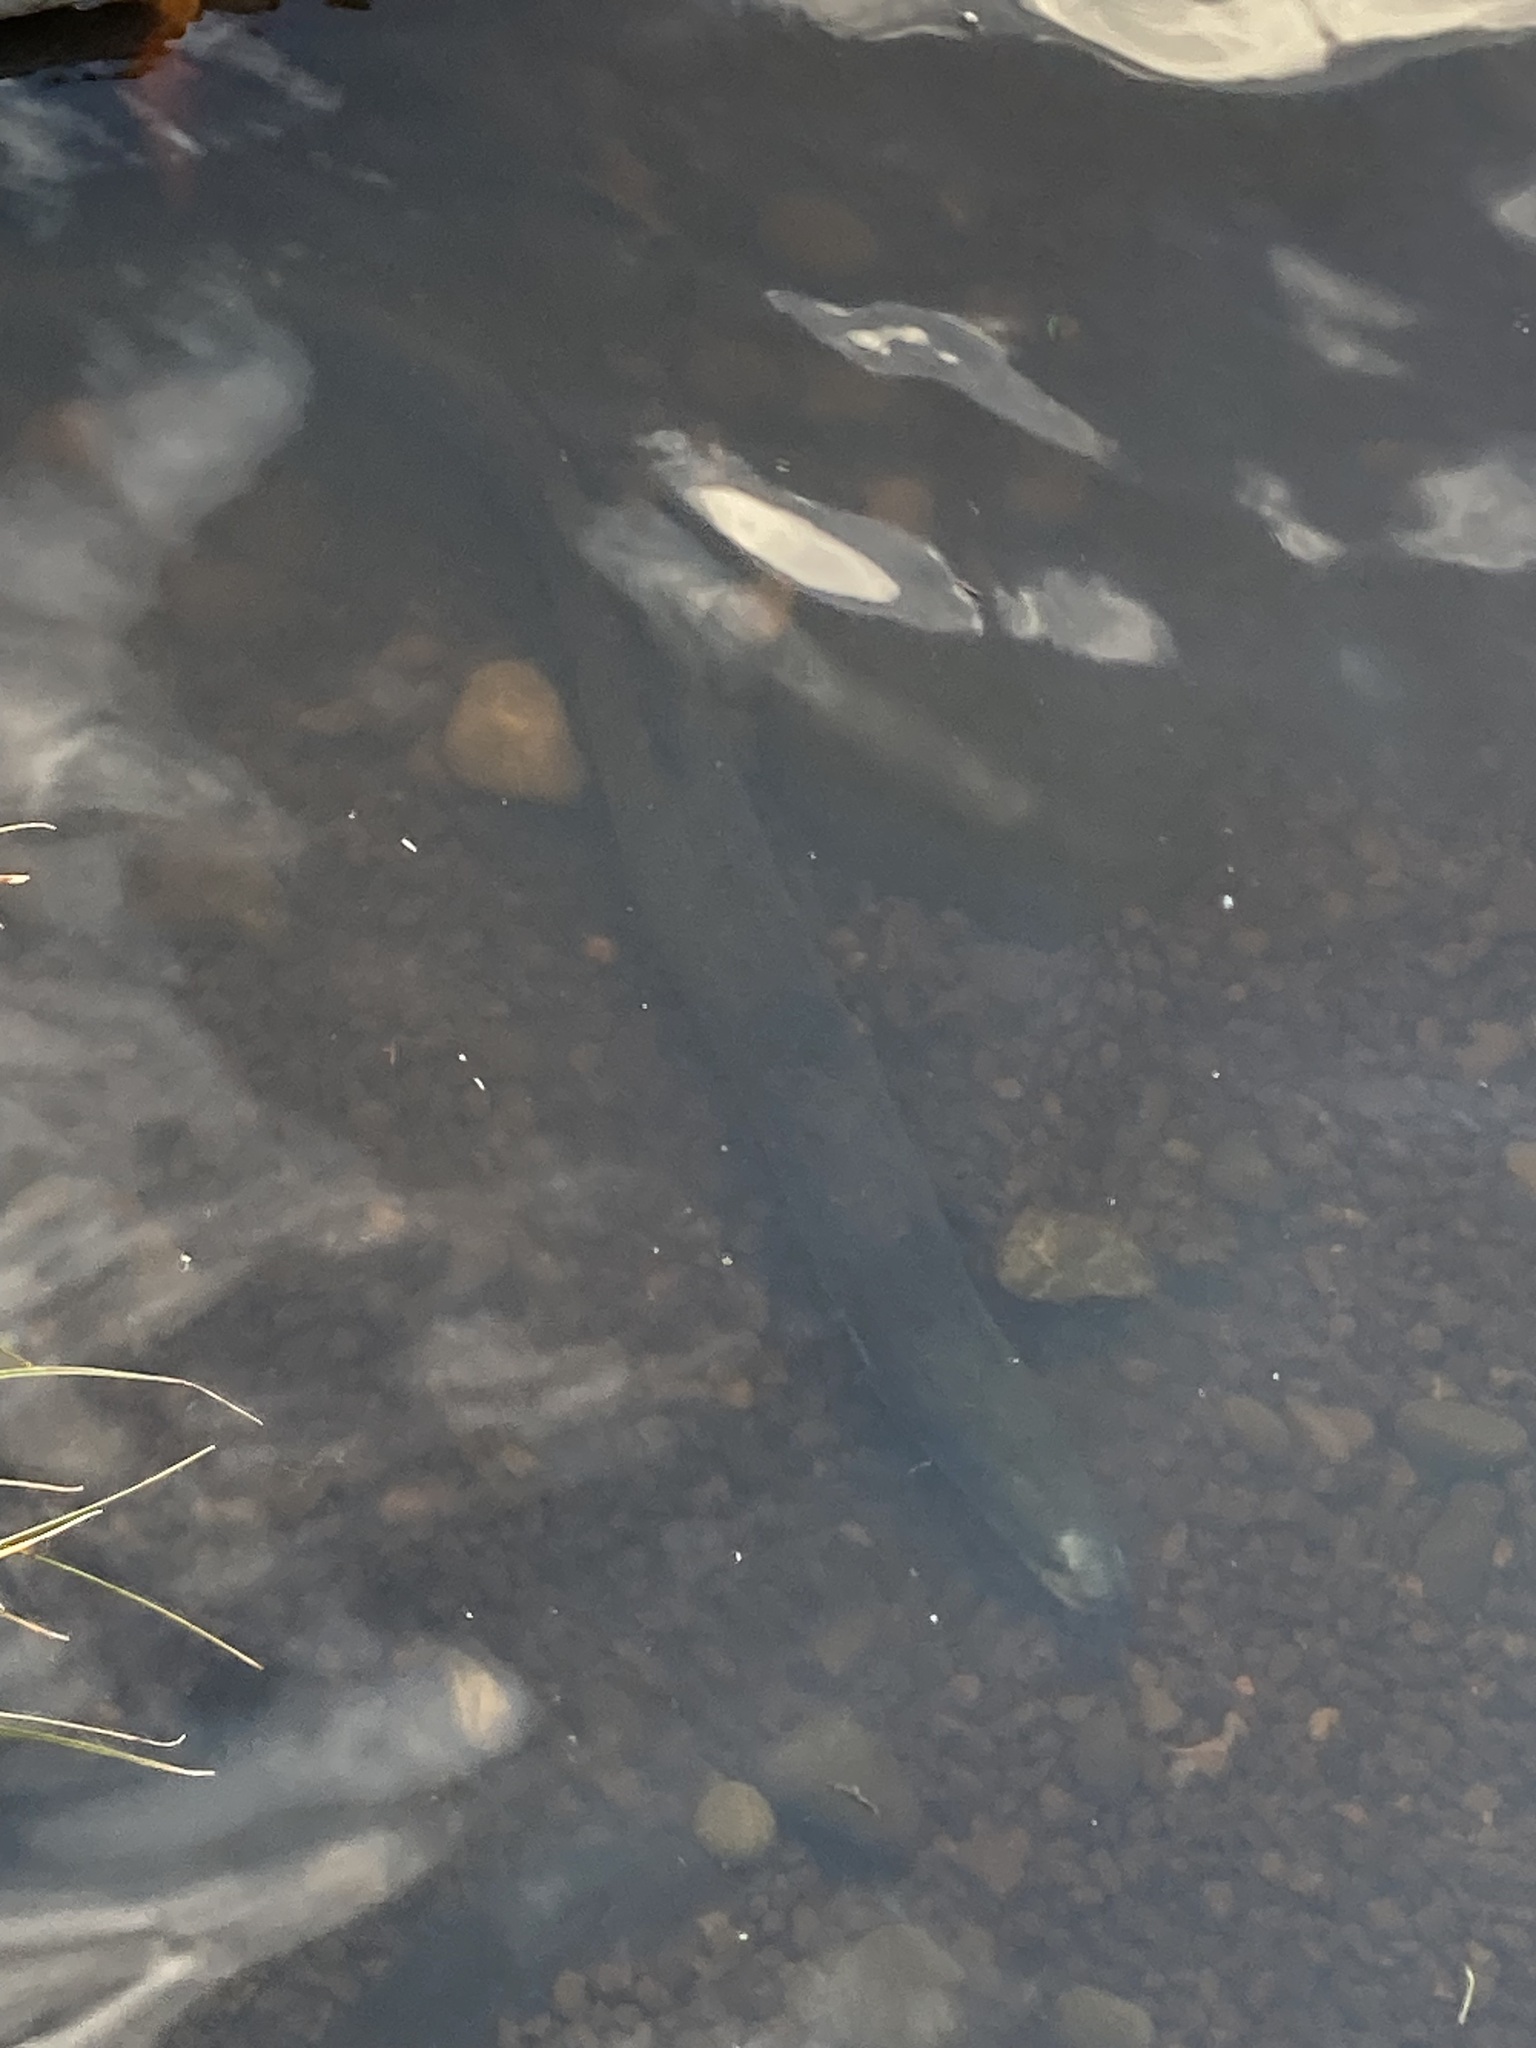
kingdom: Animalia
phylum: Chordata
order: Anguilliformes
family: Anguillidae
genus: Anguilla
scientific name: Anguilla australis
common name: Shortfin eel
